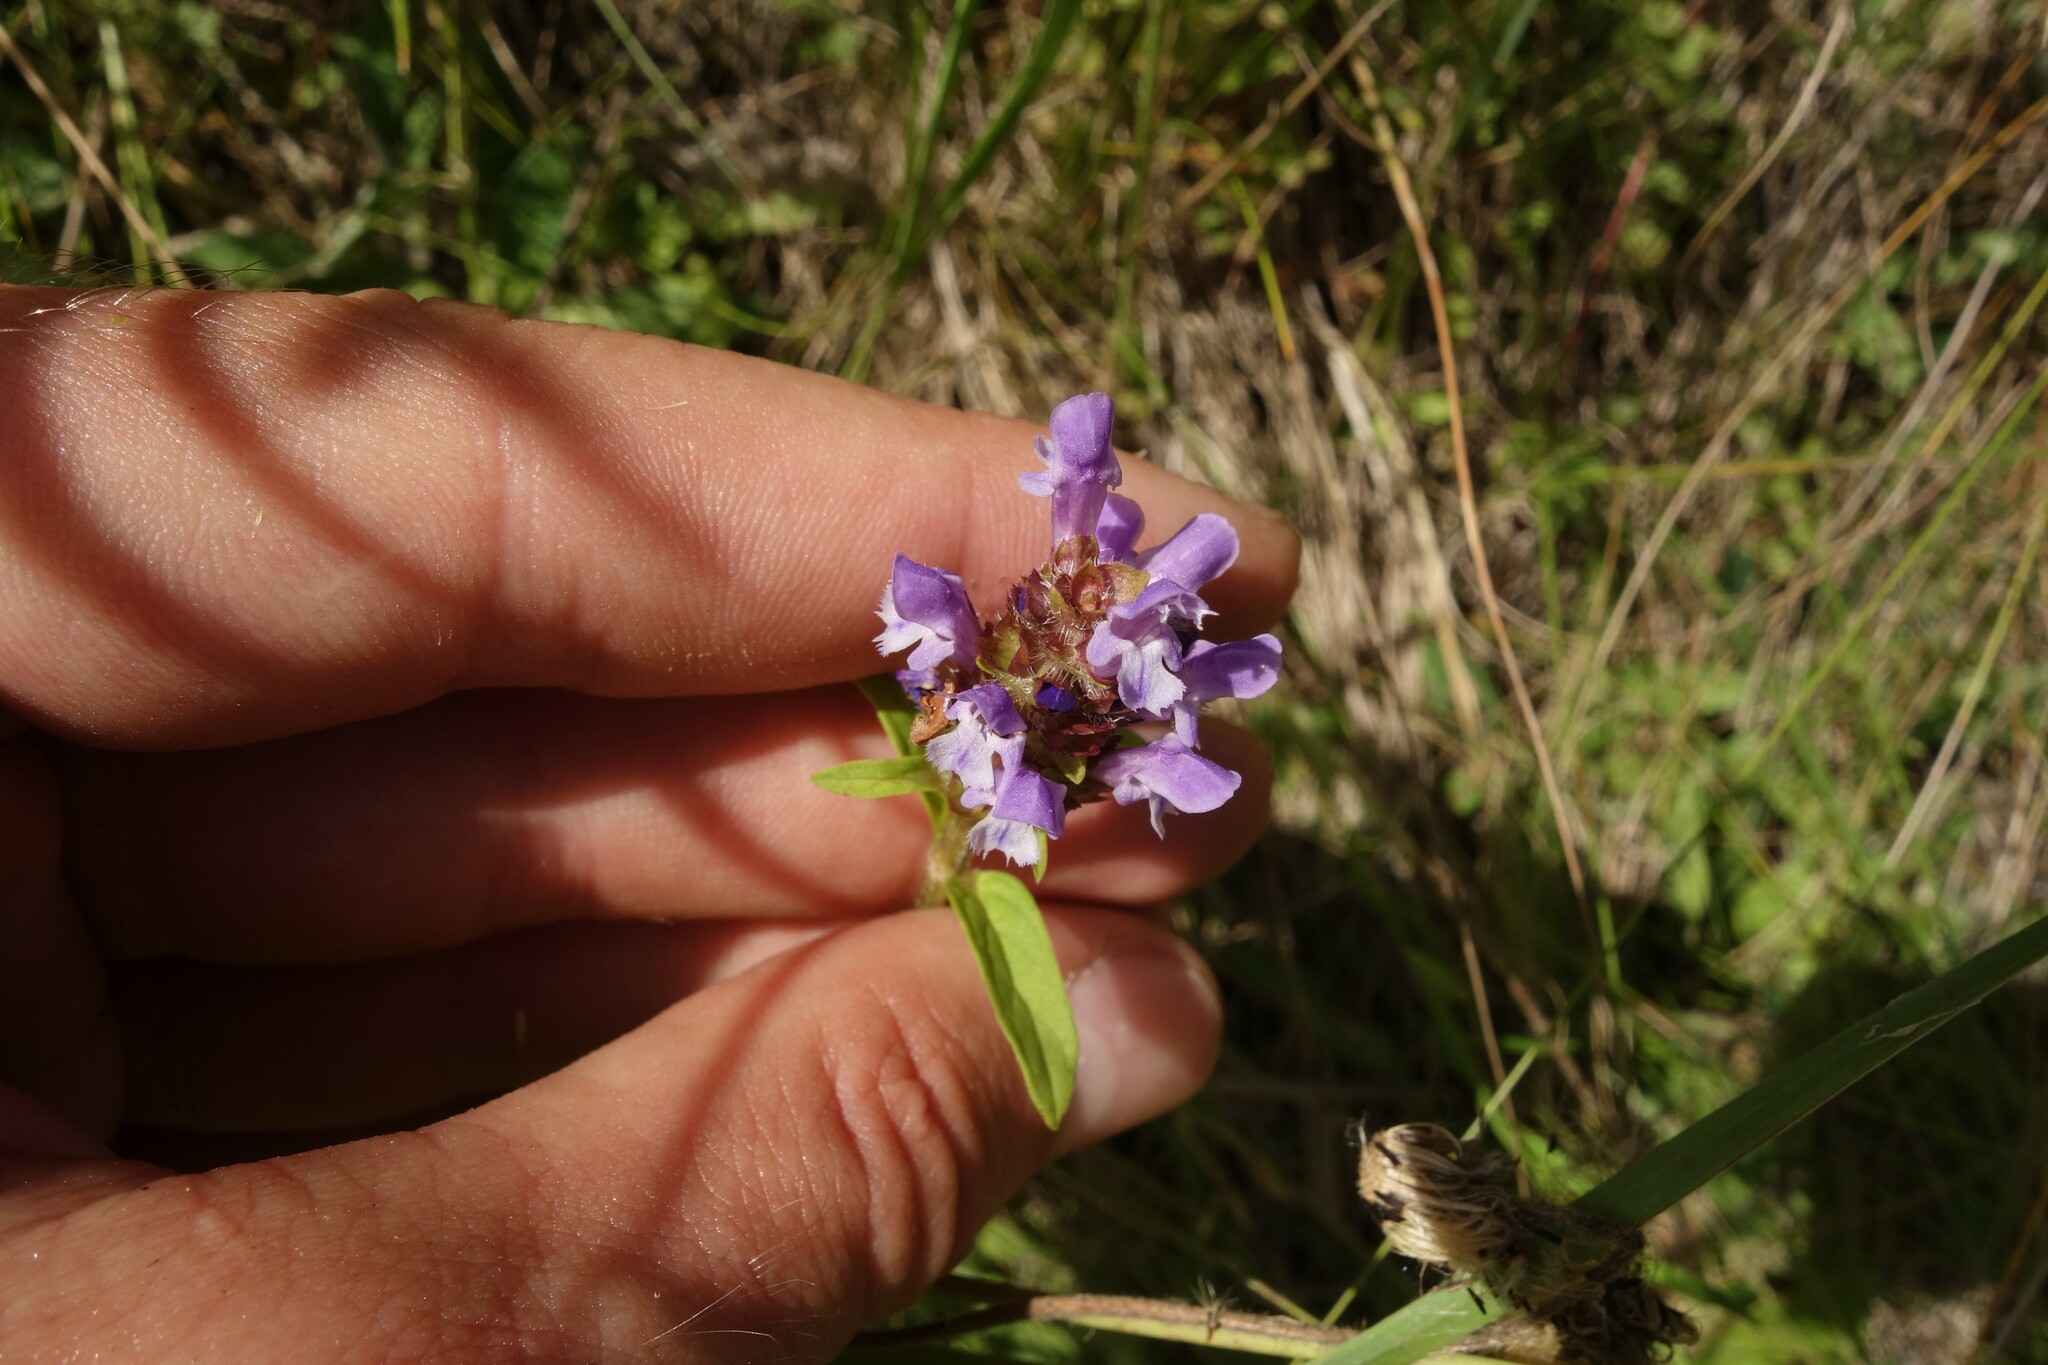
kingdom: Plantae
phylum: Tracheophyta
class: Magnoliopsida
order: Lamiales
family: Lamiaceae
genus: Prunella
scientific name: Prunella vulgaris
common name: Heal-all
